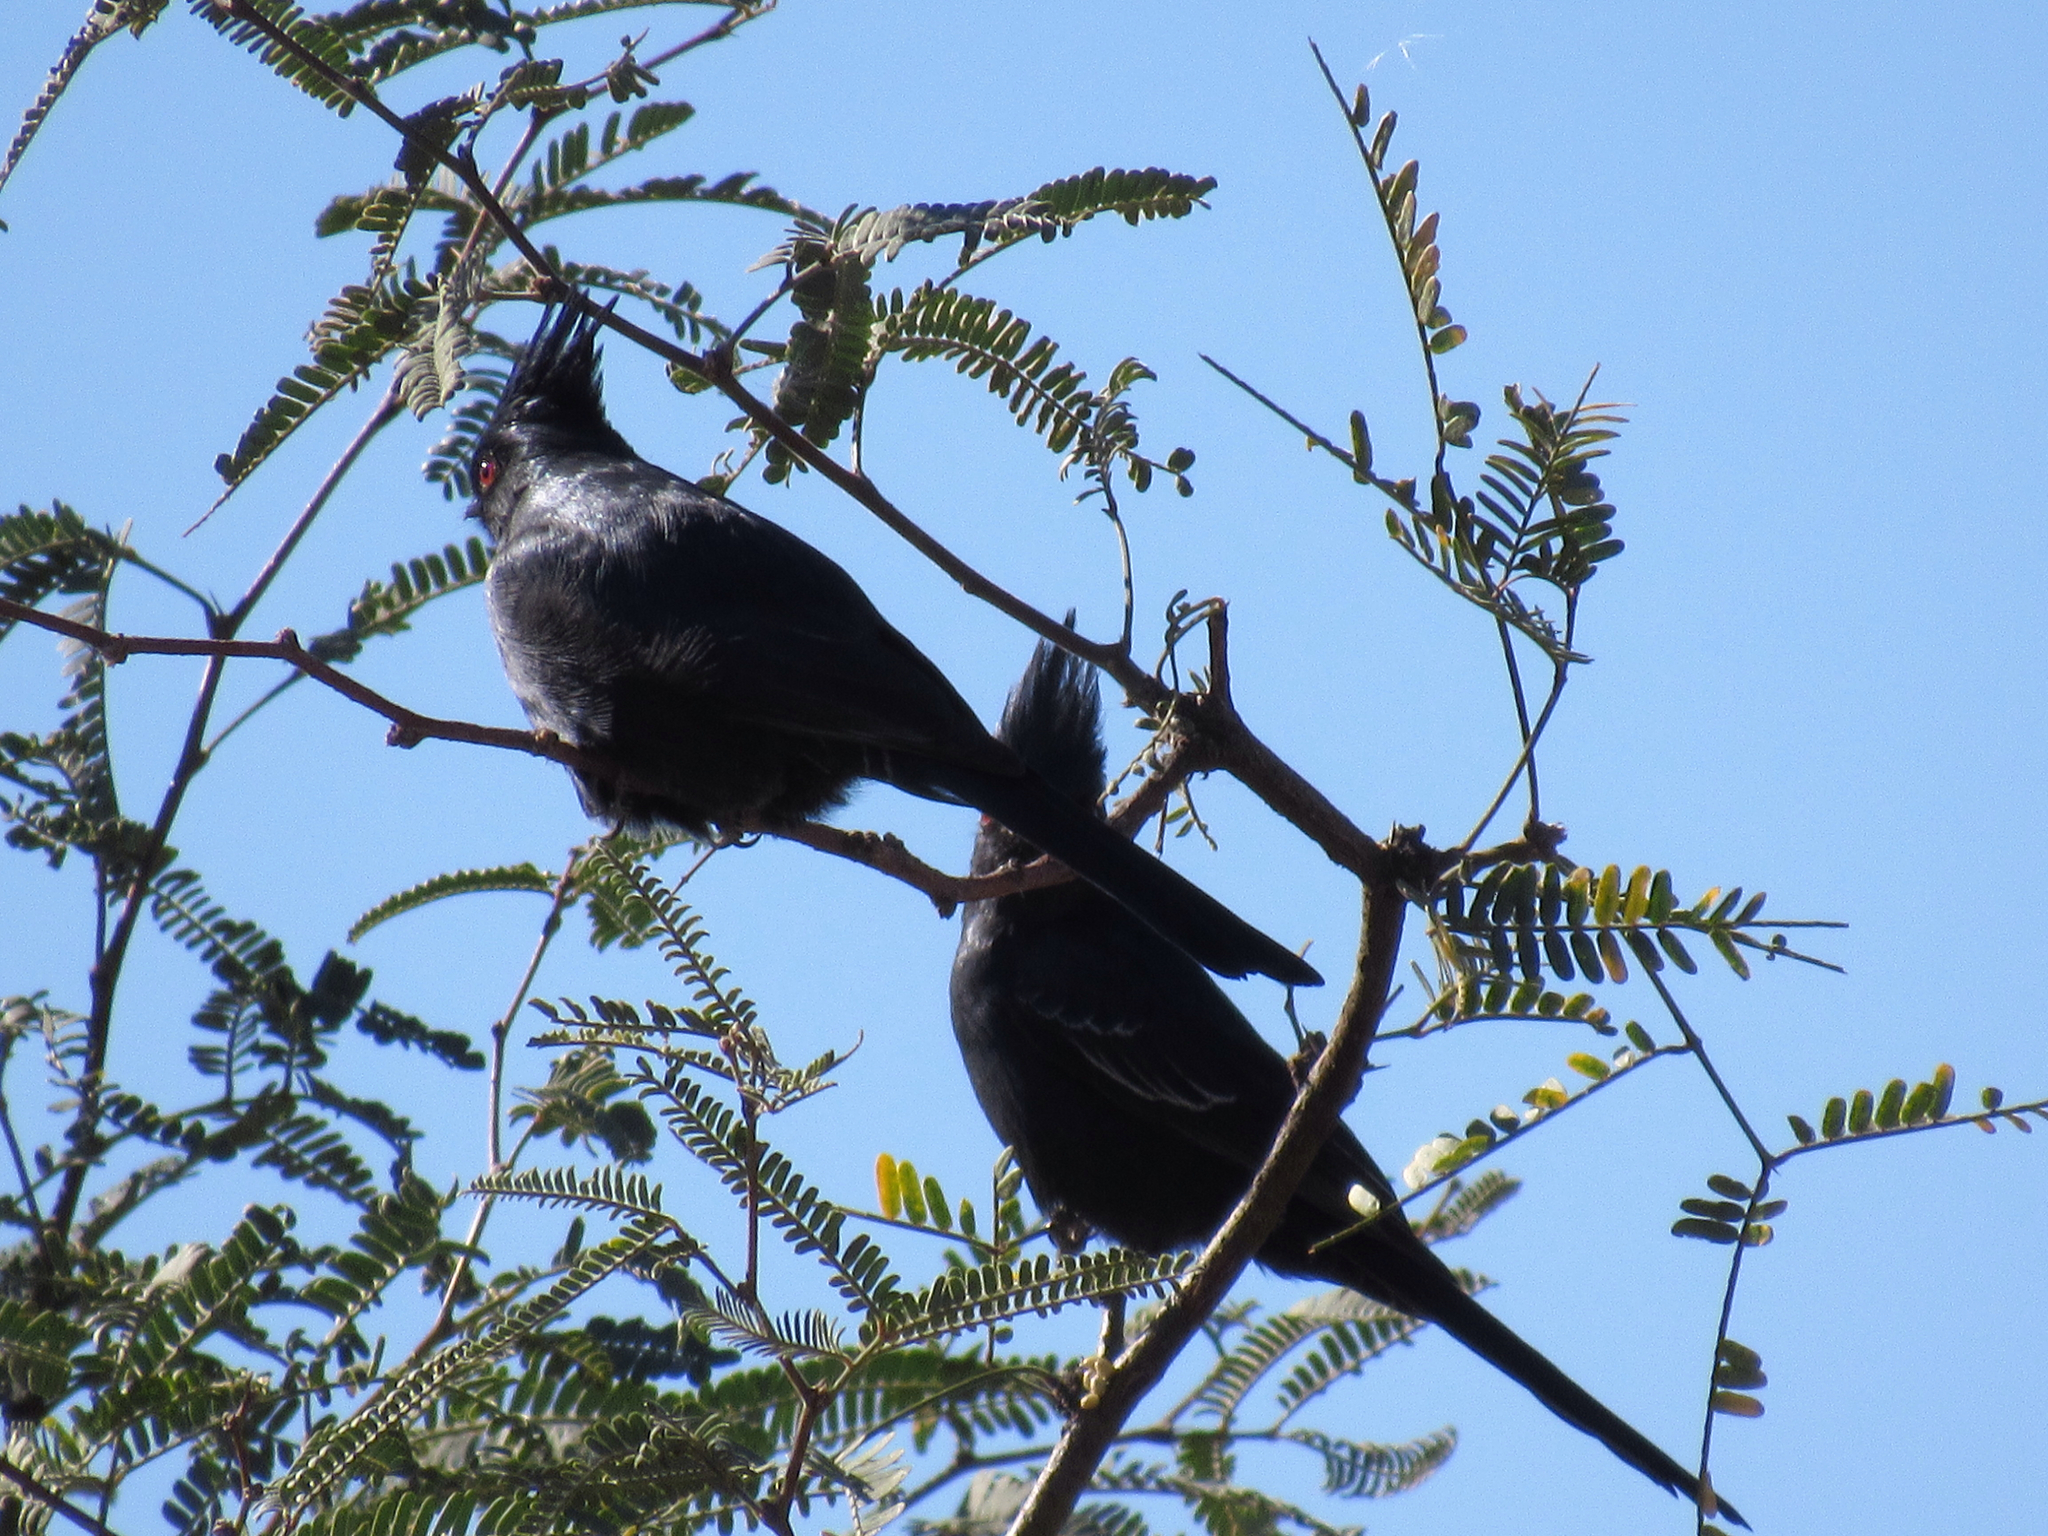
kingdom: Animalia
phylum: Chordata
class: Aves
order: Passeriformes
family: Ptilogonatidae
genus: Phainopepla
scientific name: Phainopepla nitens
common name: Phainopepla
